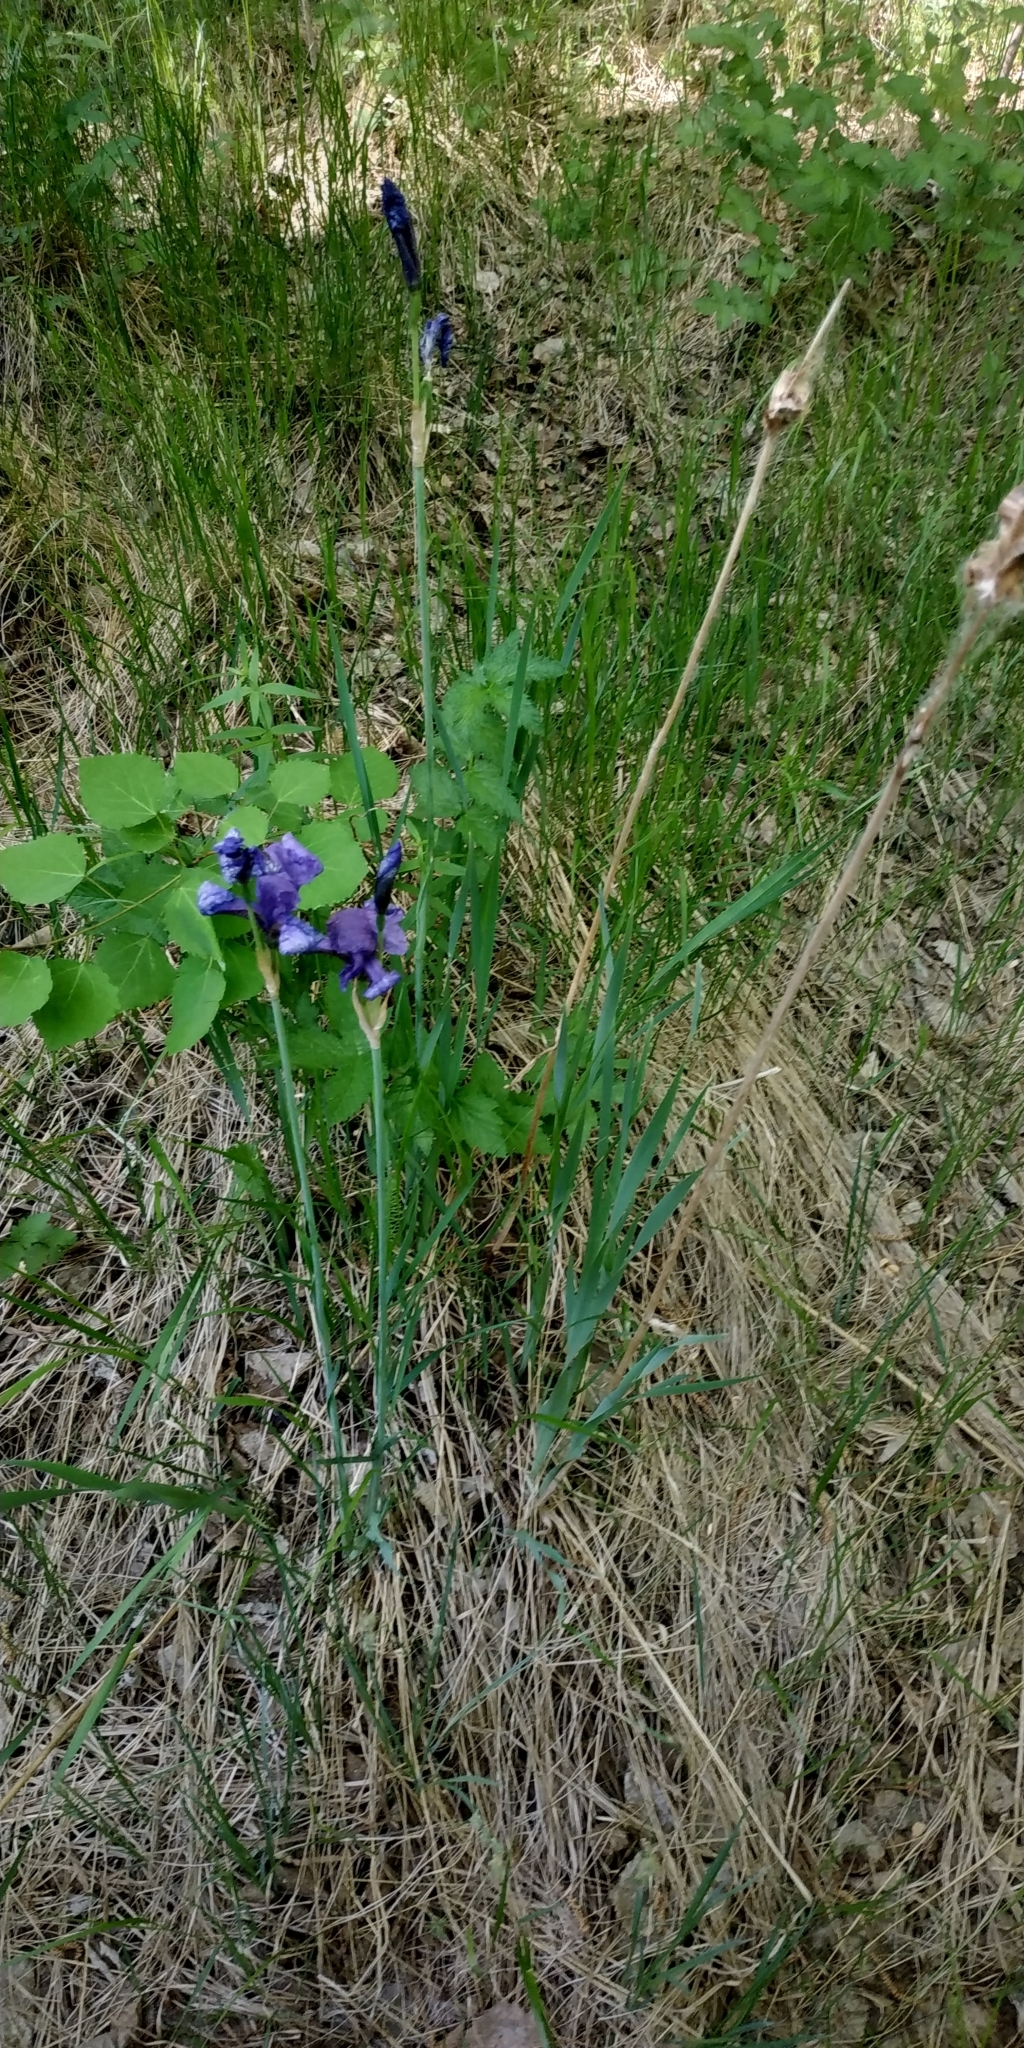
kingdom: Plantae
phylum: Tracheophyta
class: Liliopsida
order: Asparagales
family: Iridaceae
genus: Iris
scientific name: Iris sibirica
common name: Siberian iris
